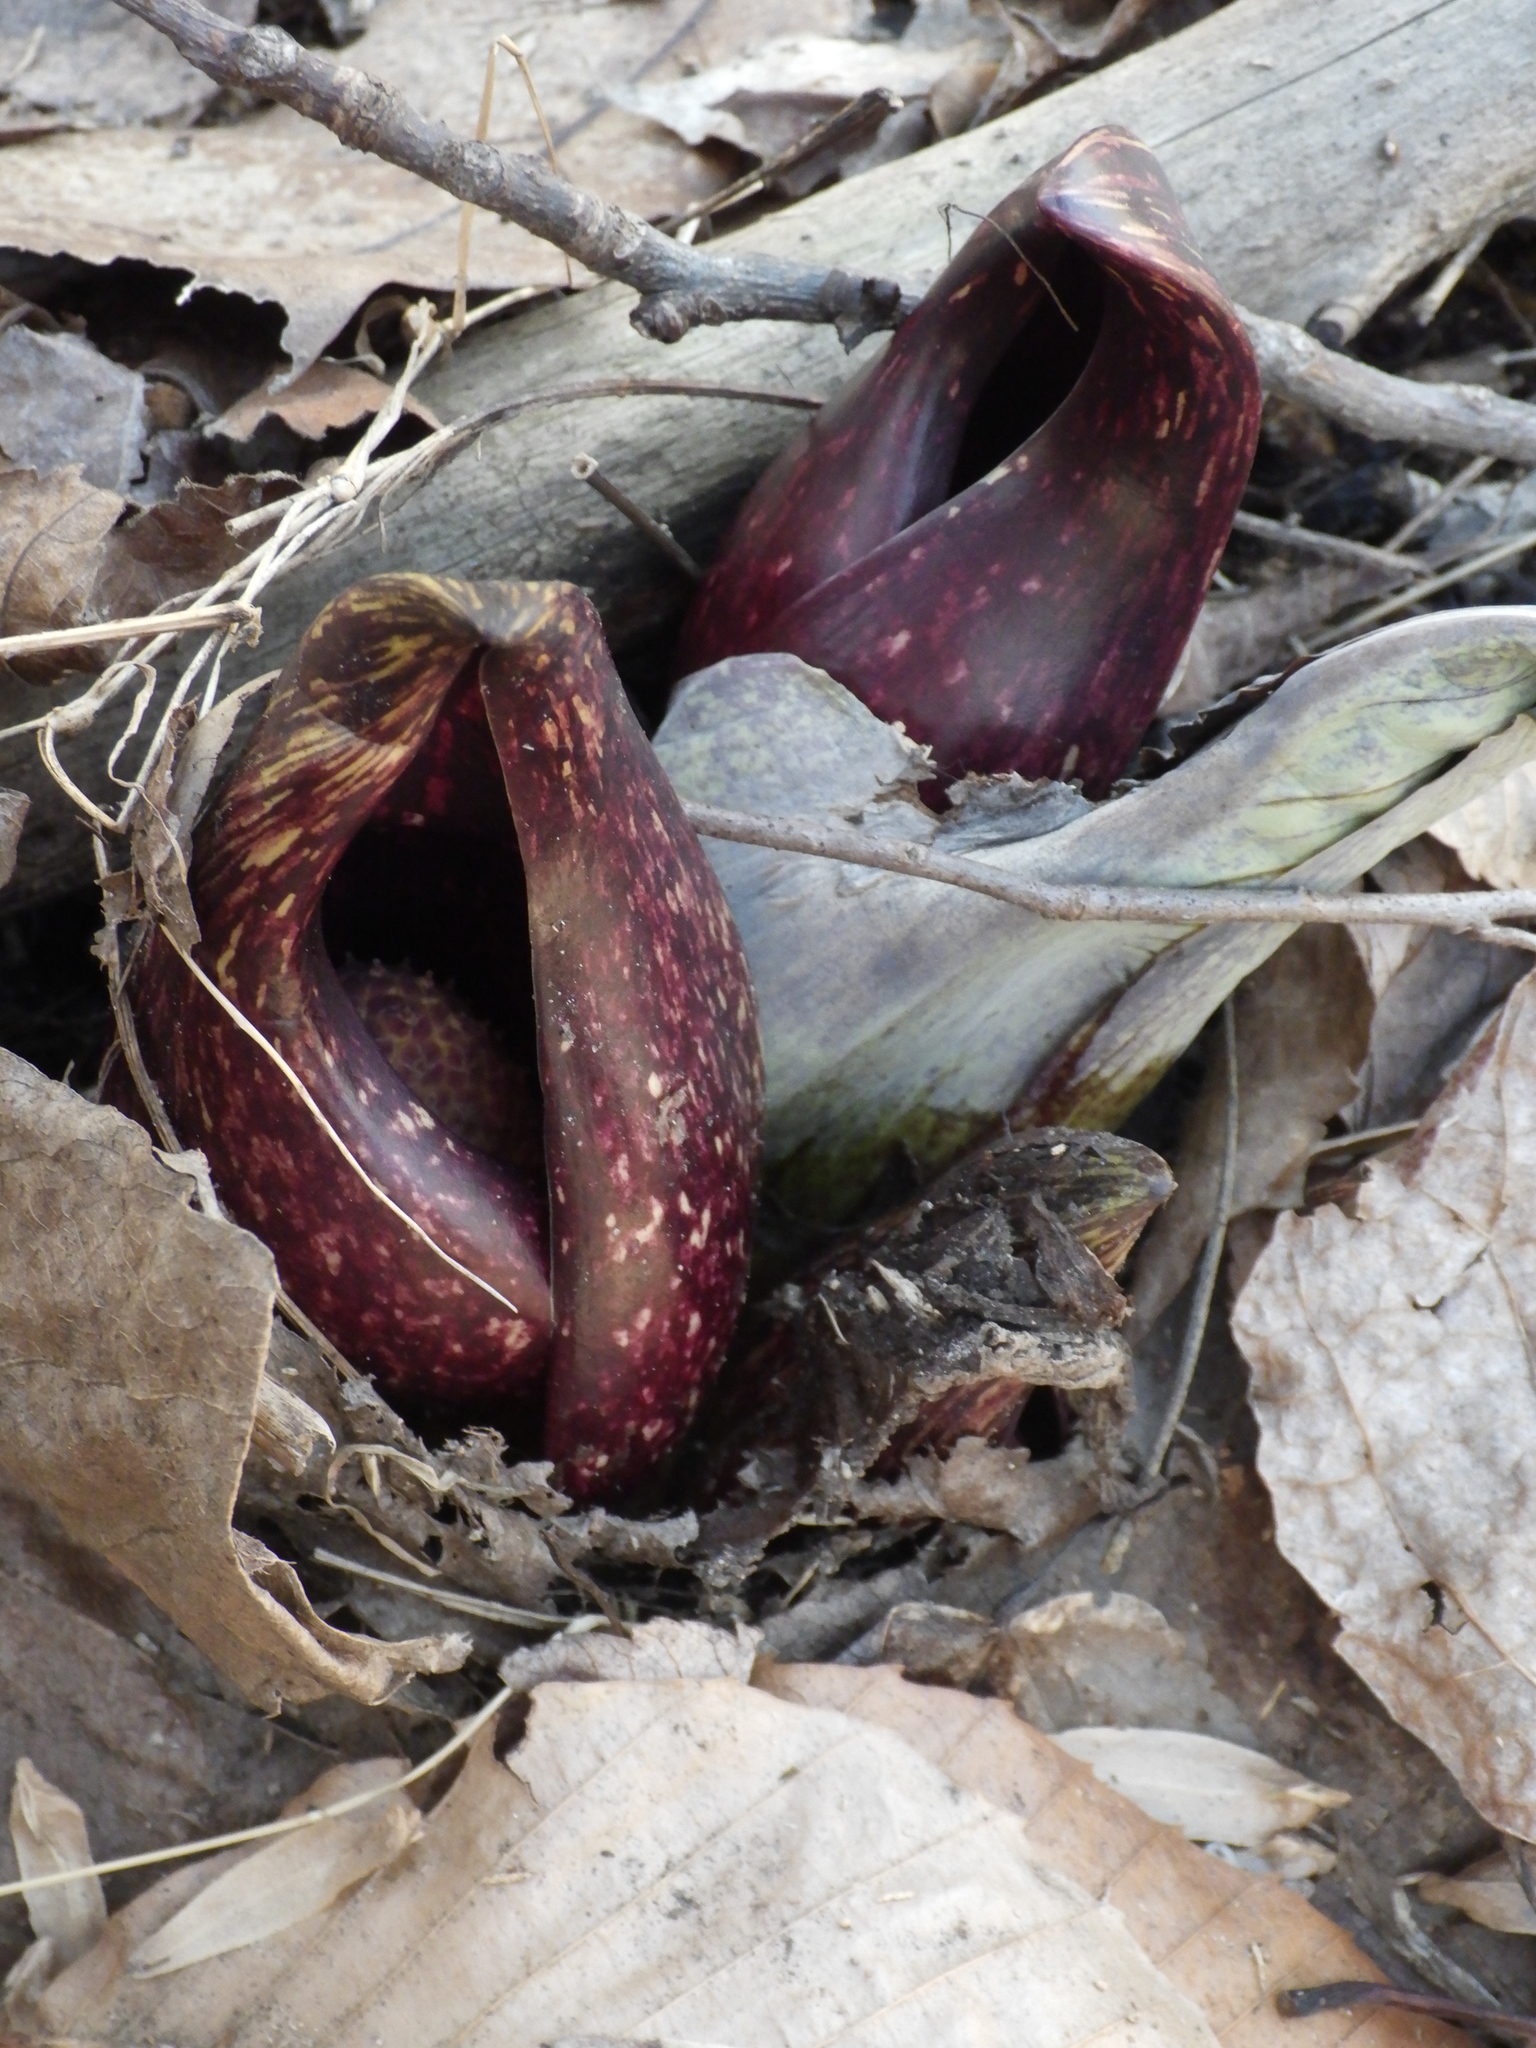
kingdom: Plantae
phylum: Tracheophyta
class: Liliopsida
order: Alismatales
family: Araceae
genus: Symplocarpus
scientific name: Symplocarpus foetidus
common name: Eastern skunk cabbage
